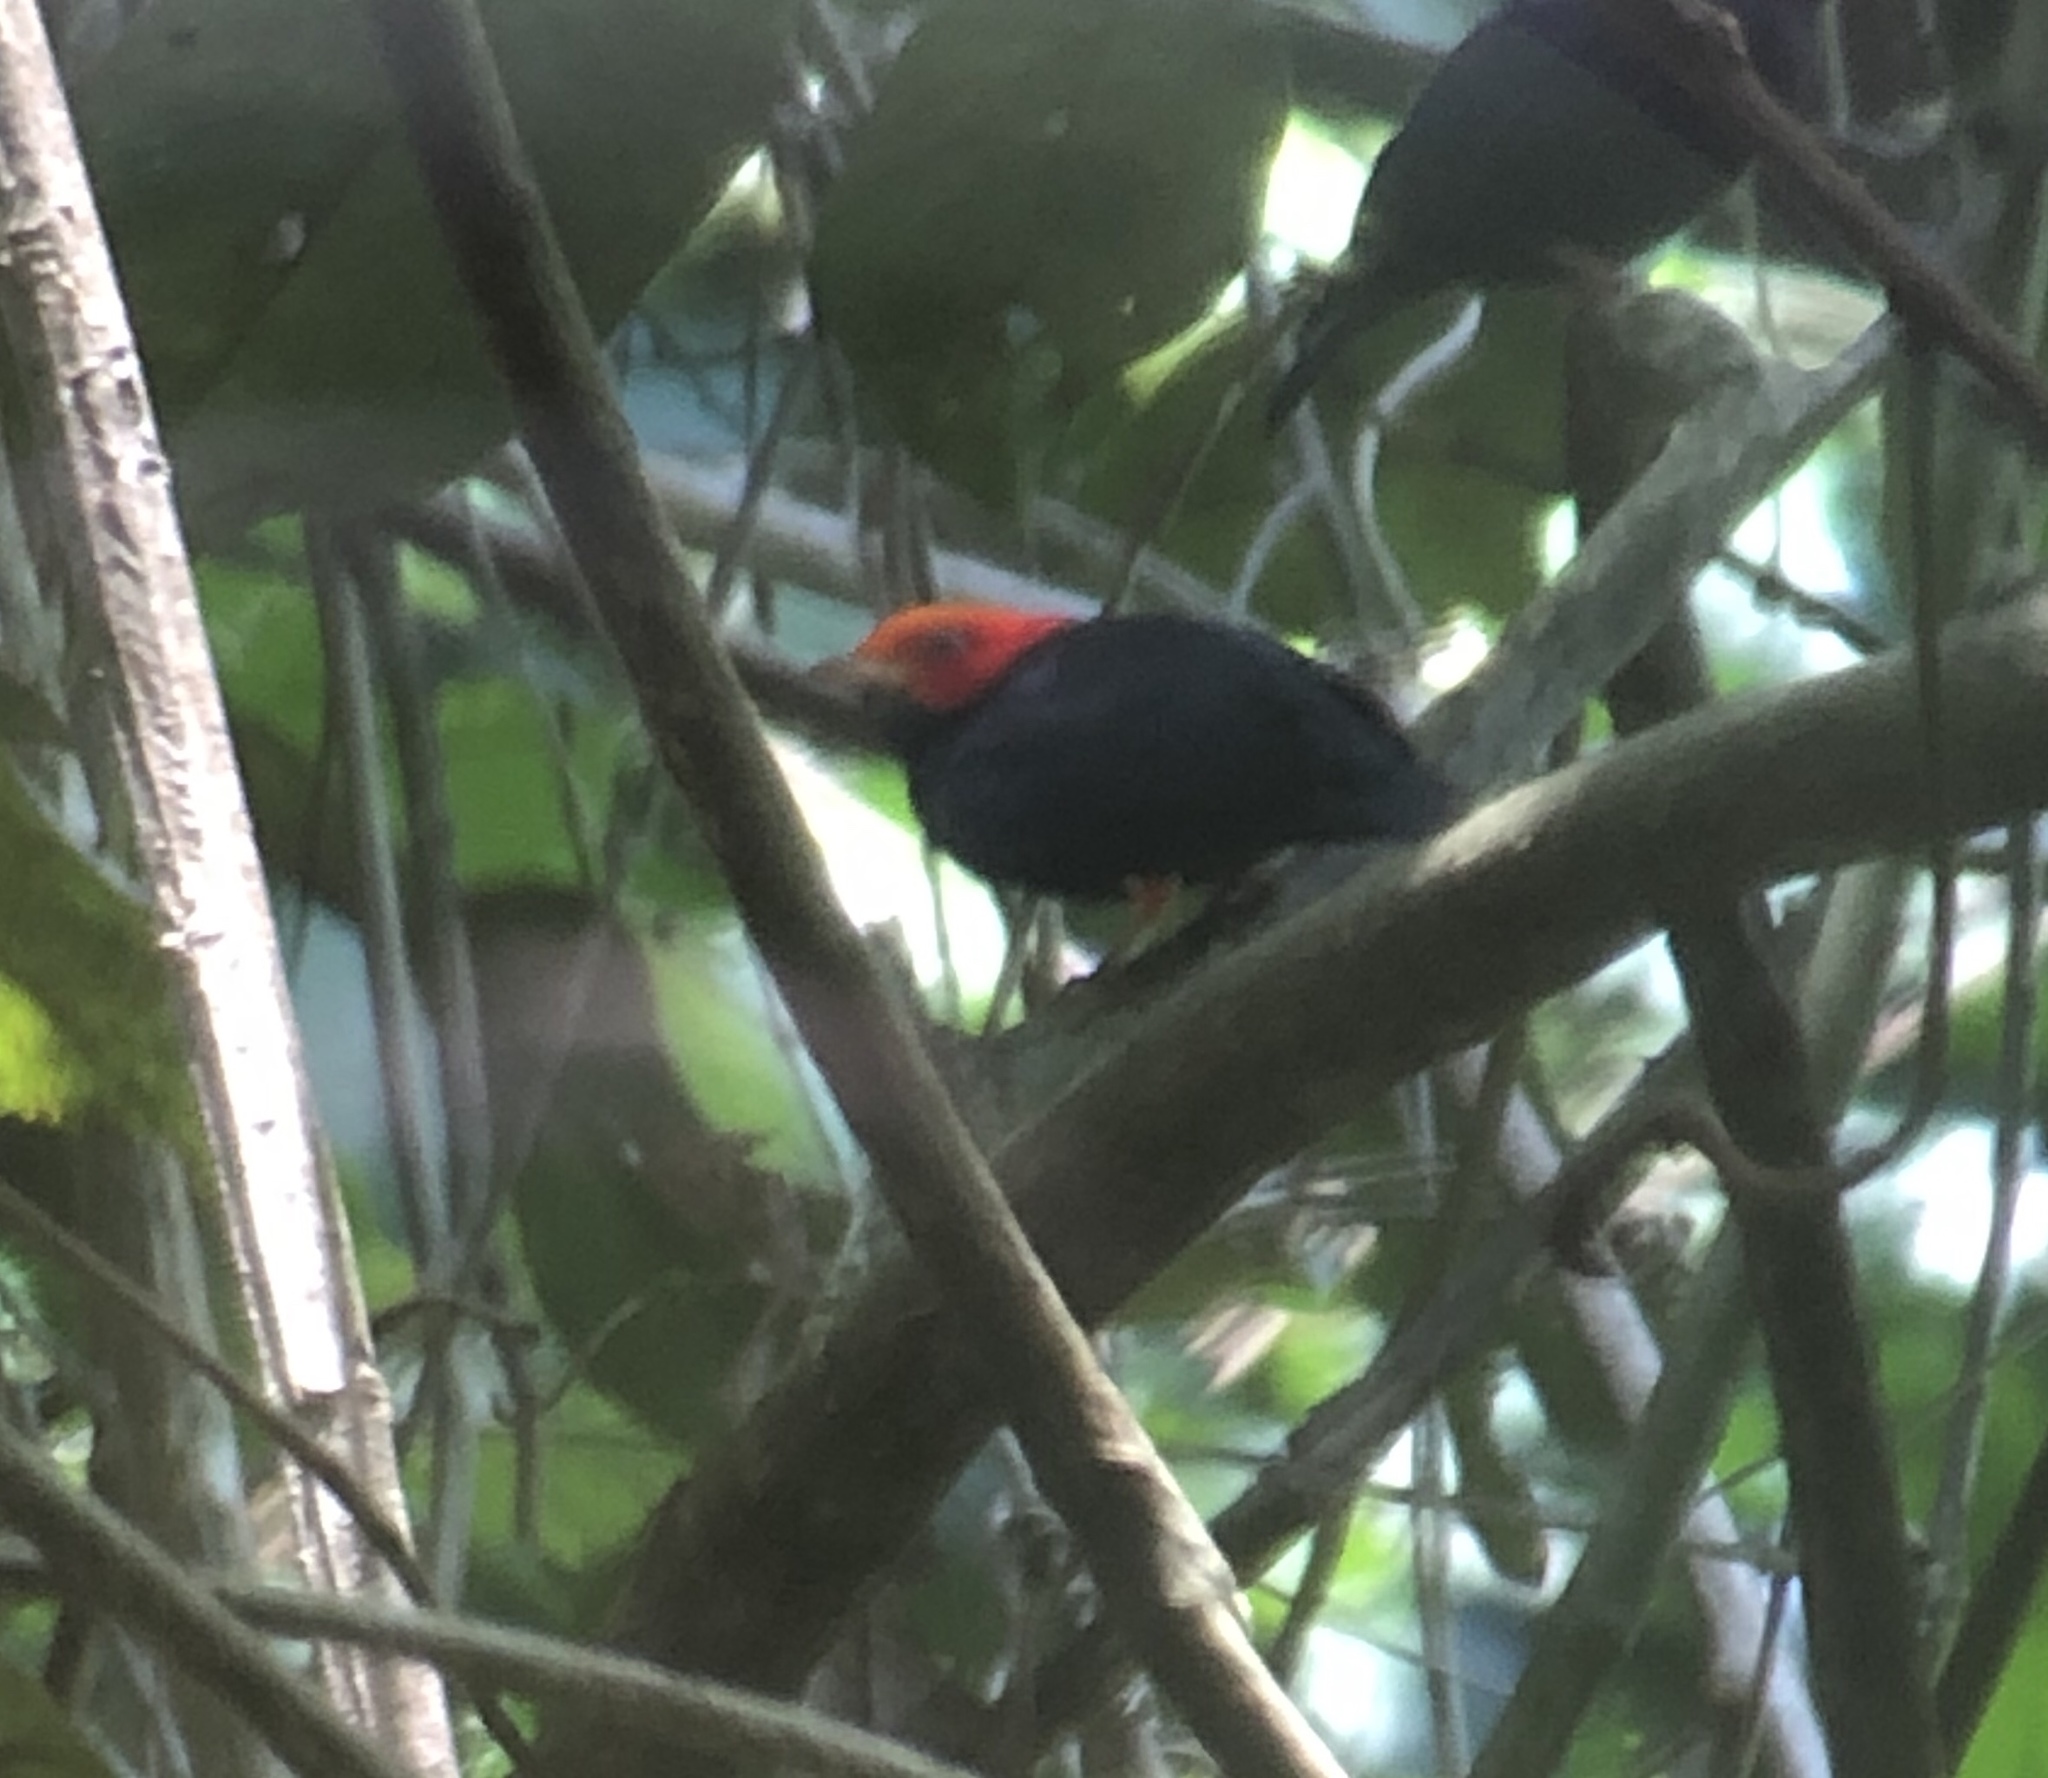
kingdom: Animalia
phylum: Chordata
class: Aves
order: Passeriformes
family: Pipridae
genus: Pipra
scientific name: Pipra rubrocapilla
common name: Red-headed manakin
